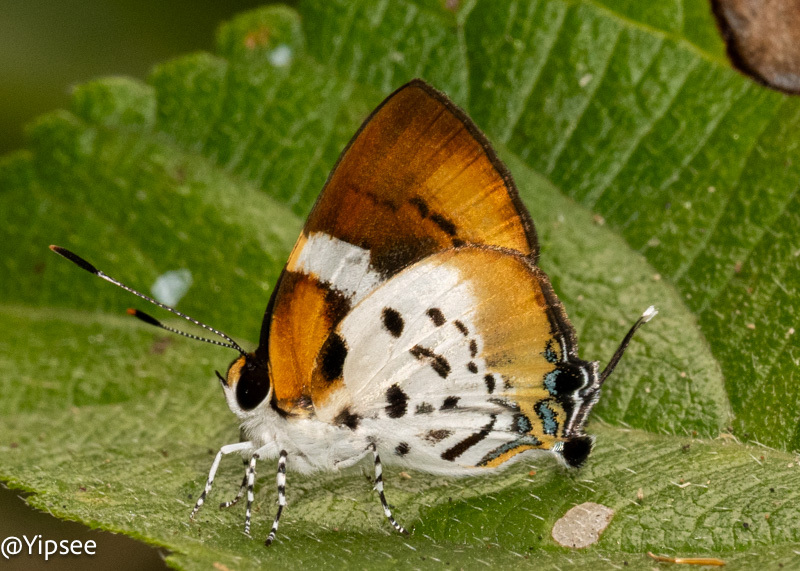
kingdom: Animalia
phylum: Arthropoda
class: Insecta
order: Lepidoptera
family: Lycaenidae
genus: Araotes
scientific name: Araotes lapithis
